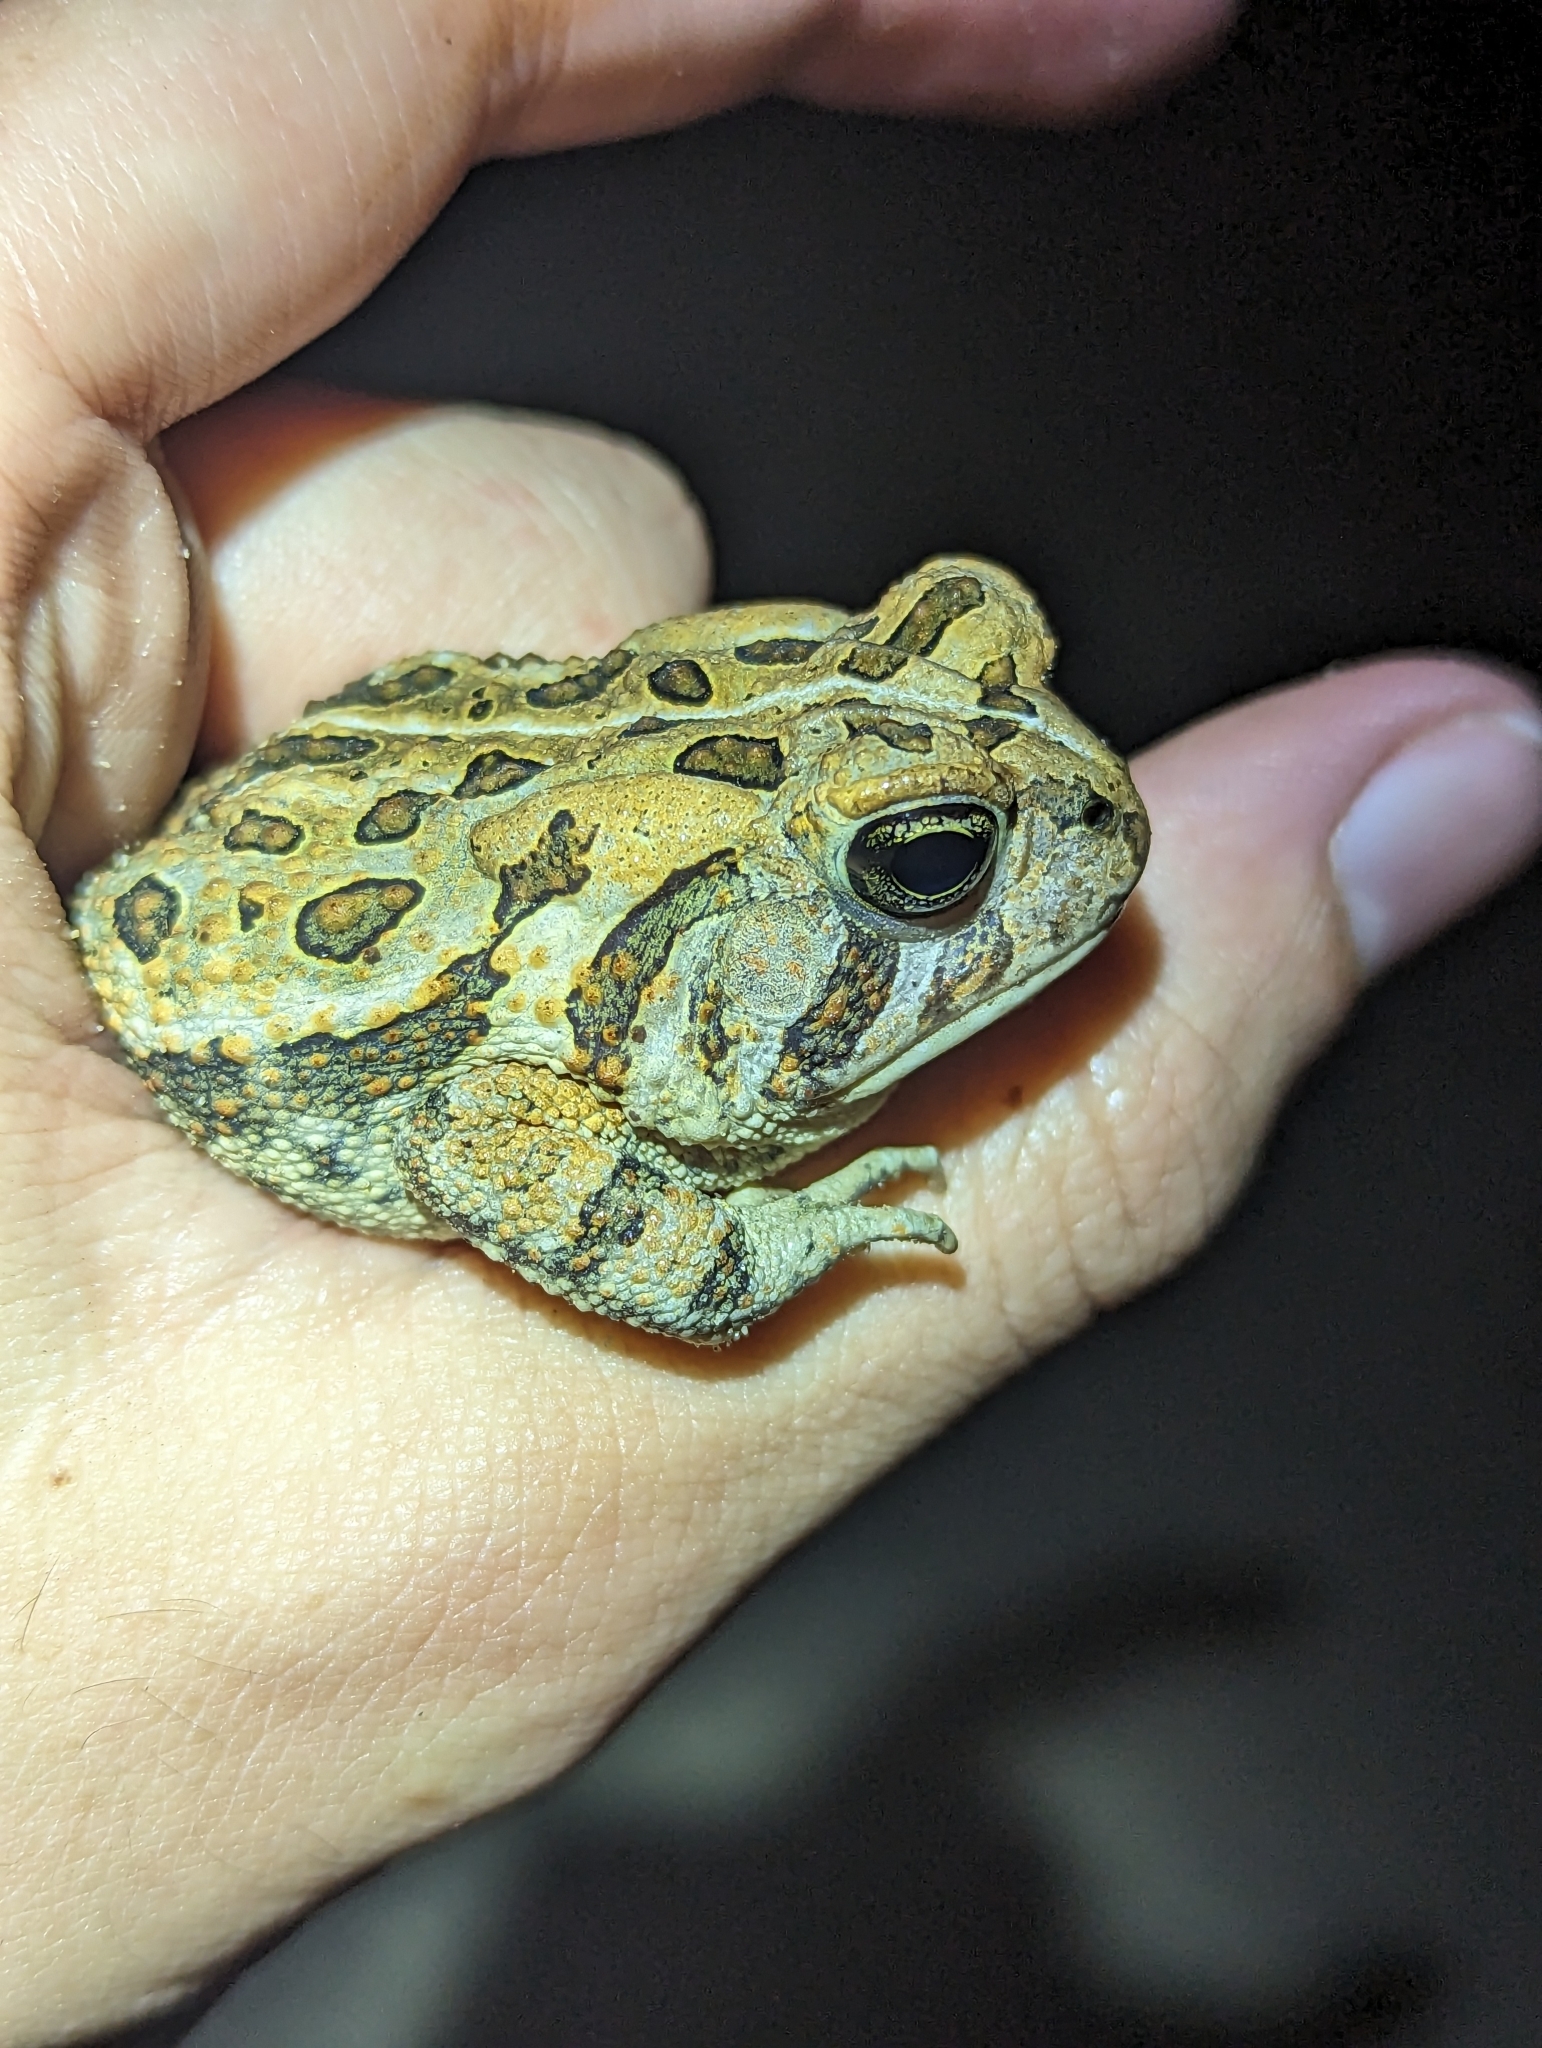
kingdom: Animalia
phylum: Chordata
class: Amphibia
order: Anura
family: Bufonidae
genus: Anaxyrus
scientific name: Anaxyrus fowleri
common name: Fowler's toad
